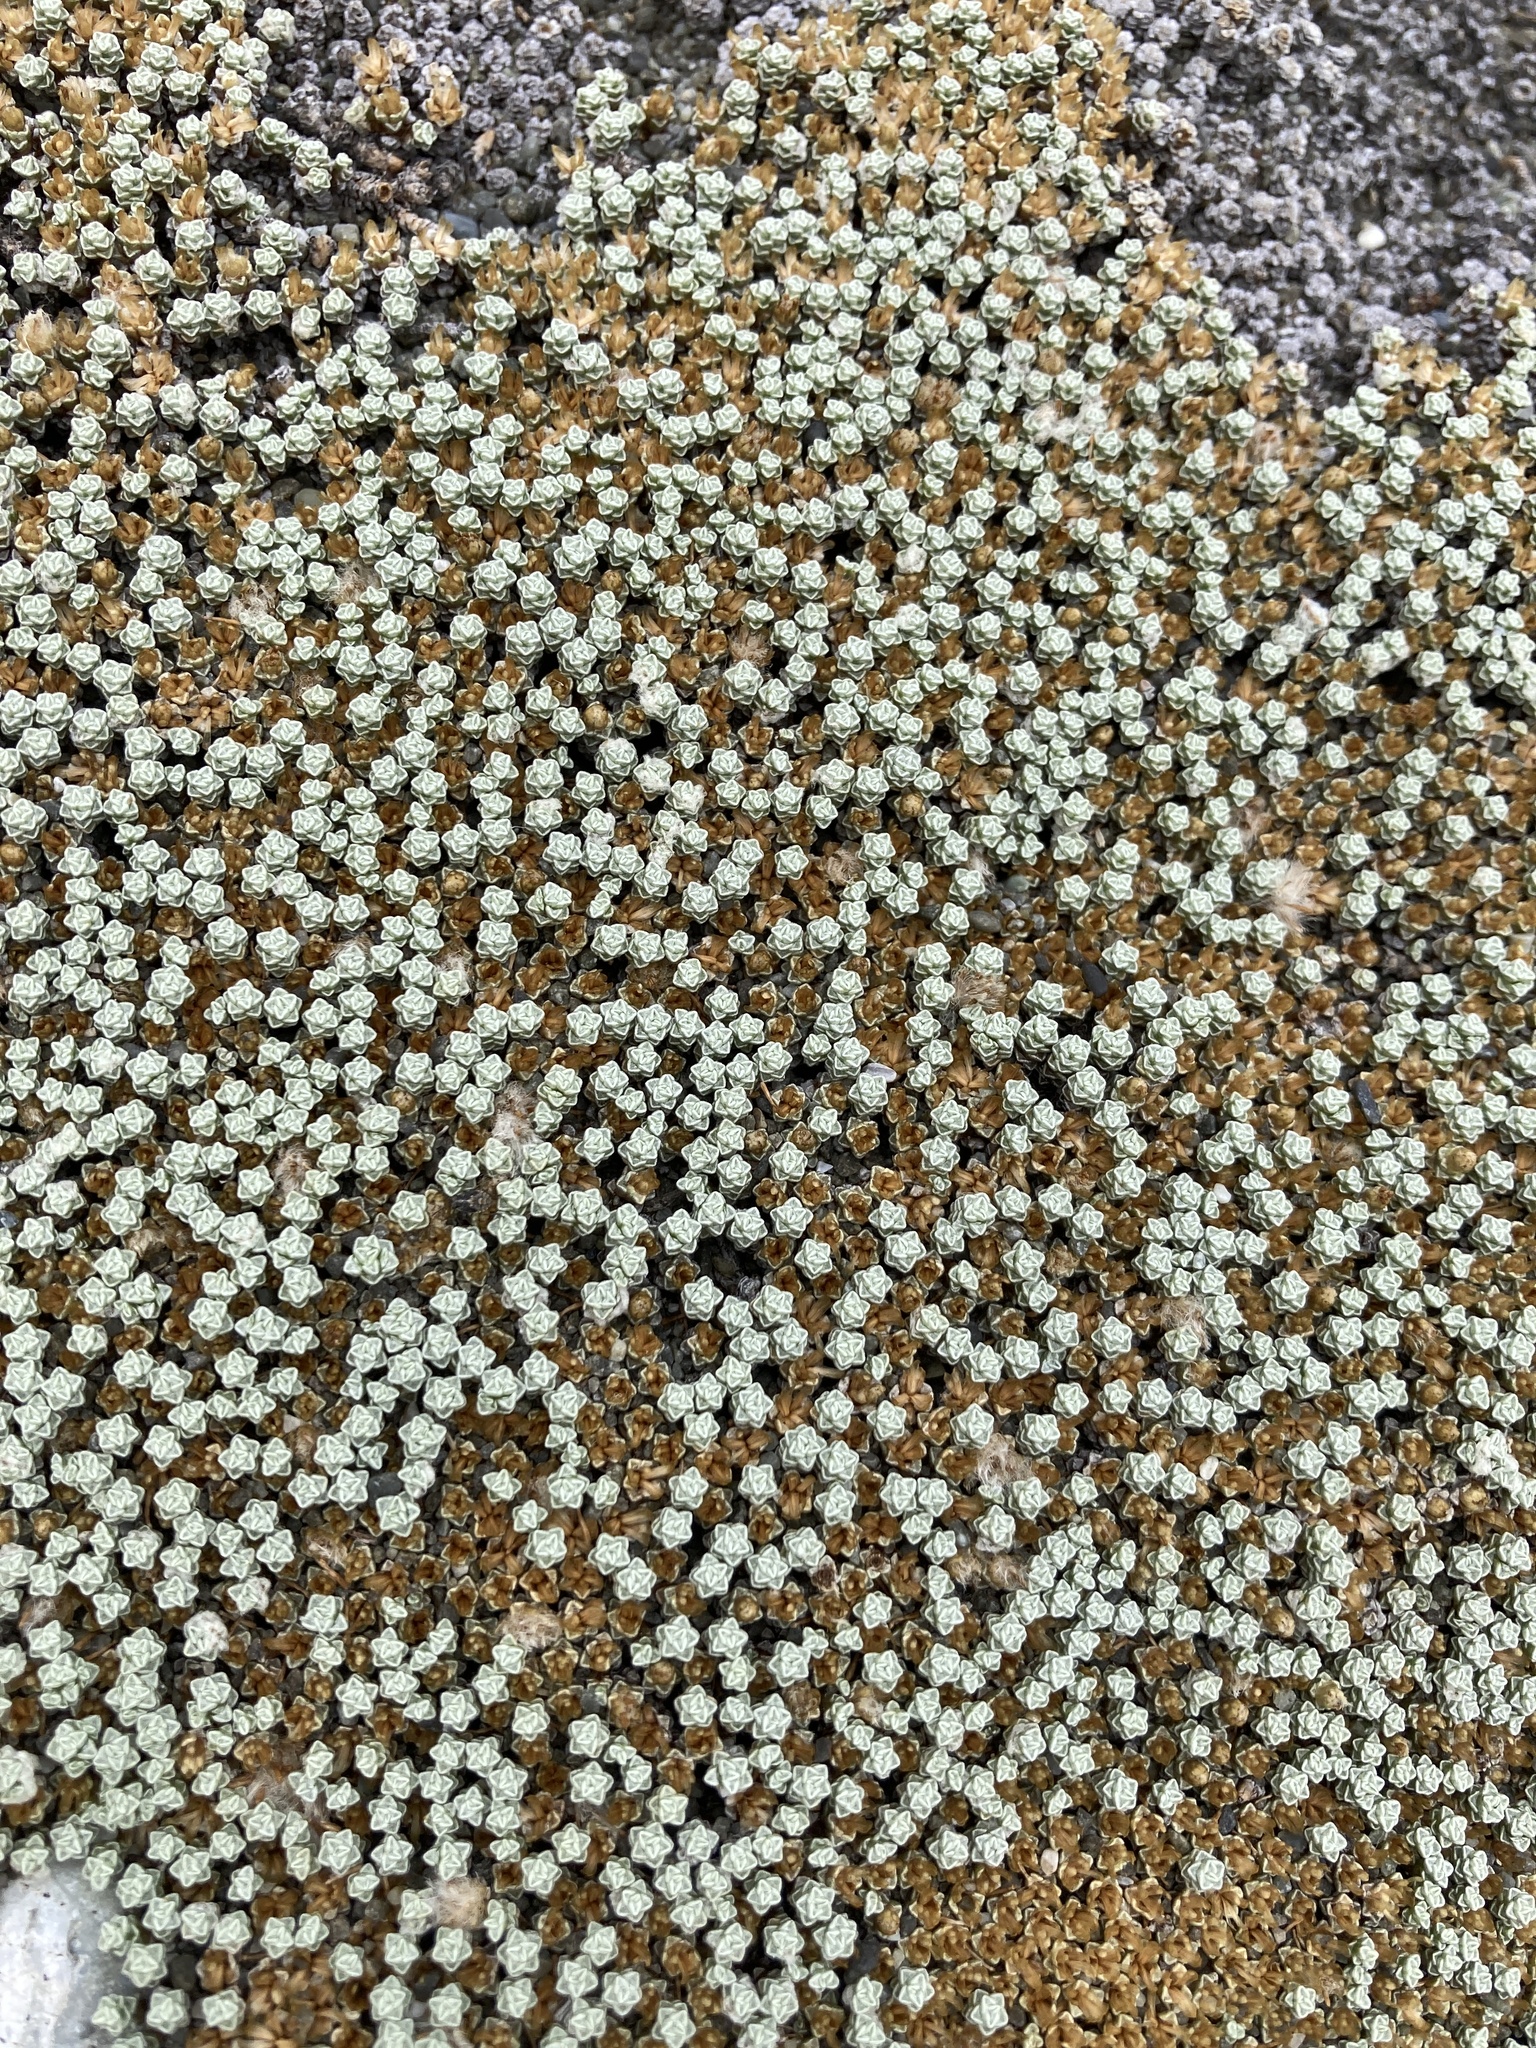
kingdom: Plantae
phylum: Tracheophyta
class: Magnoliopsida
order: Asterales
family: Asteraceae
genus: Raoulia
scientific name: Raoulia australis
